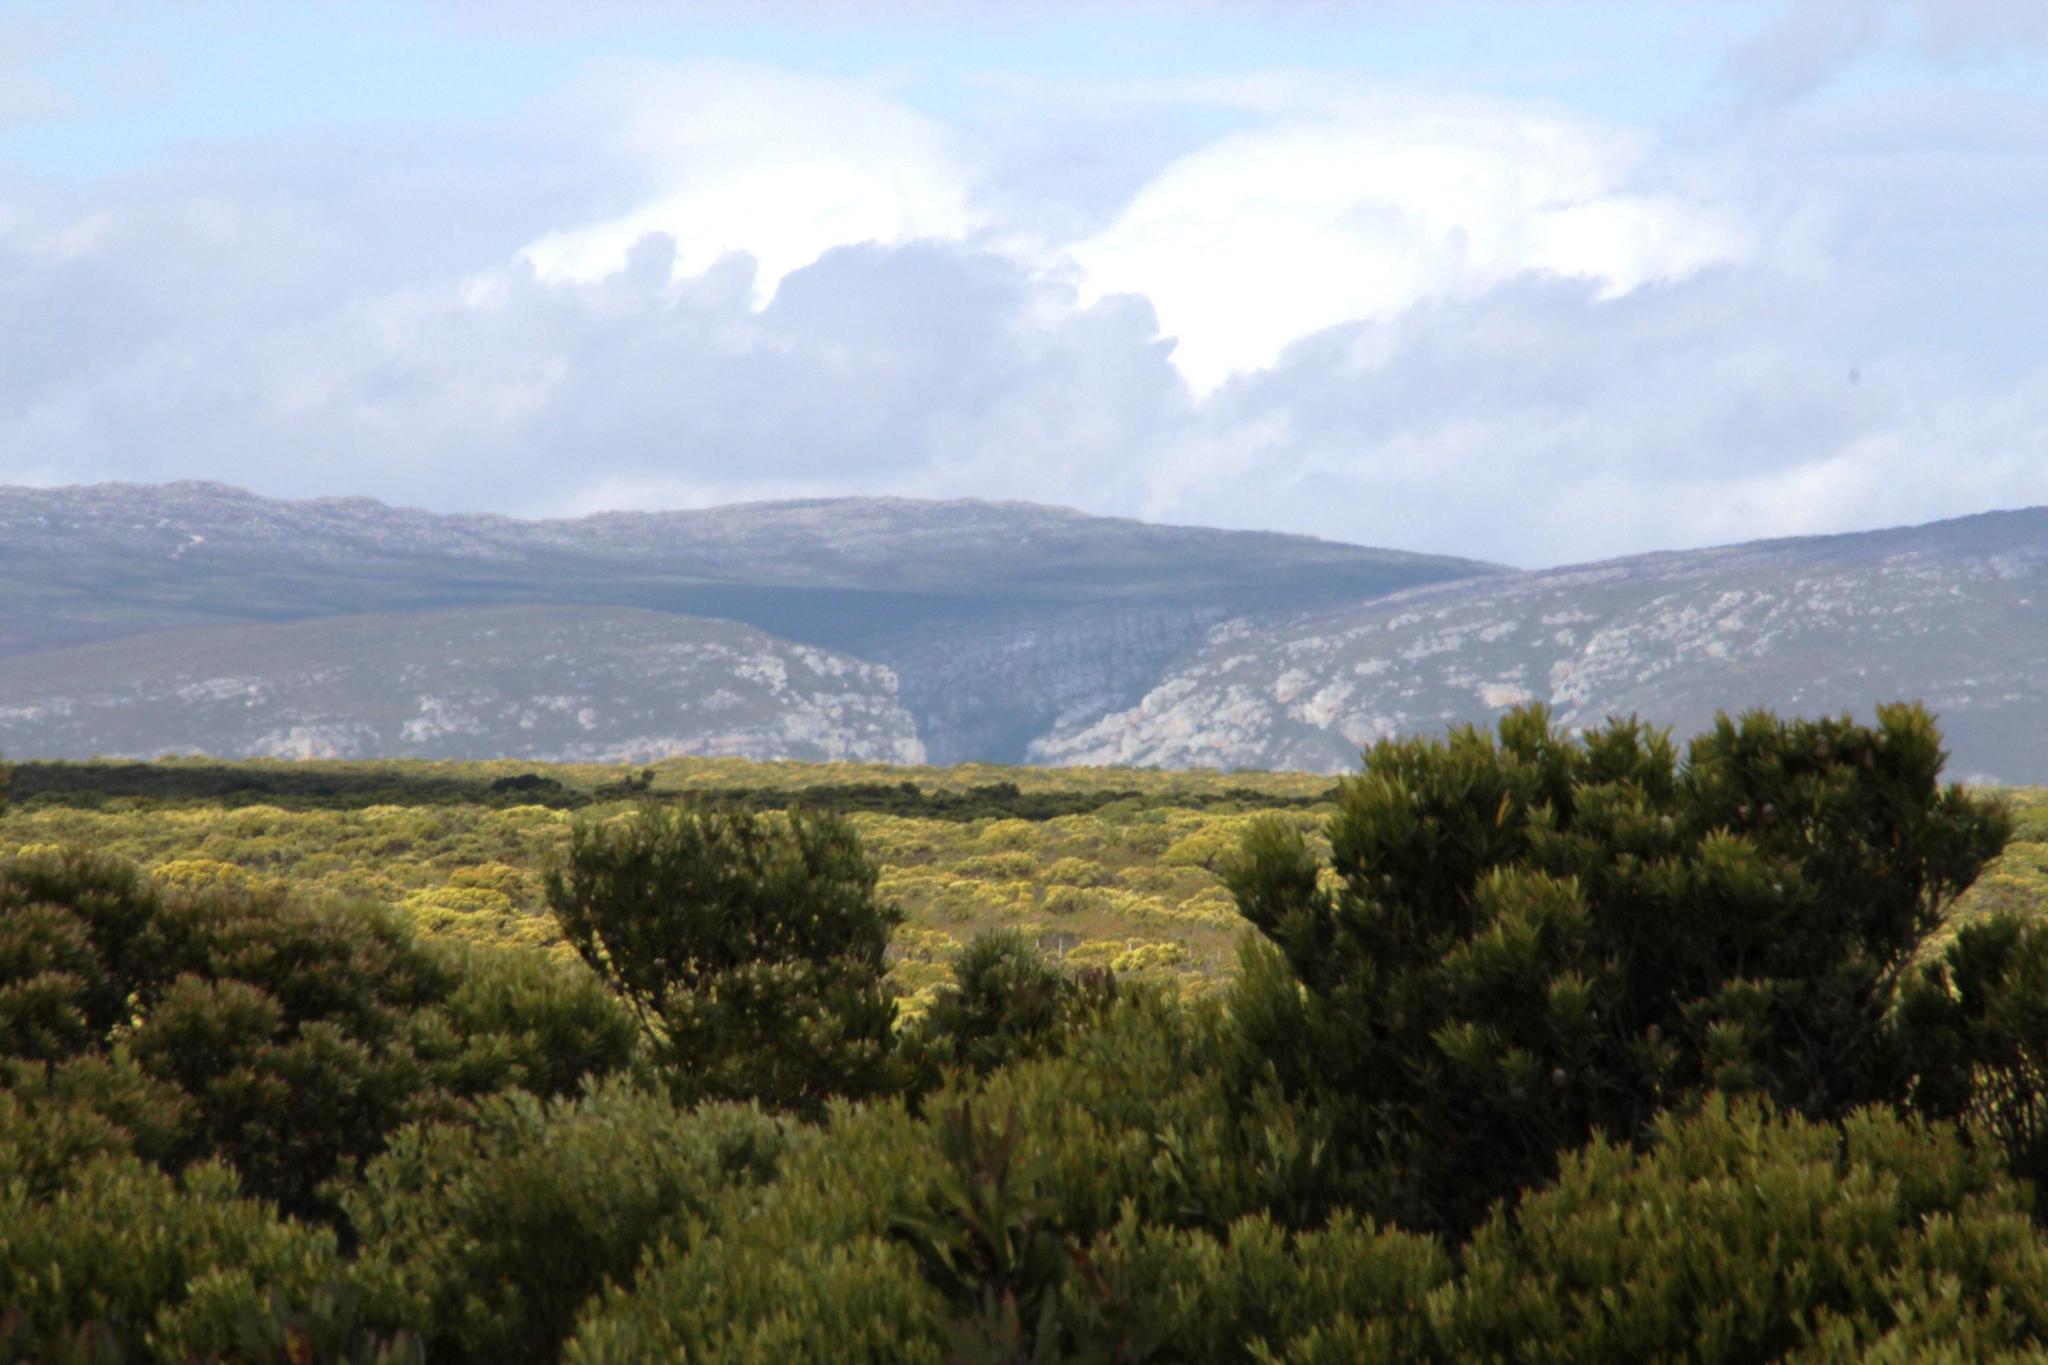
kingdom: Animalia
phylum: Chordata
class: Aves
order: Accipitriformes
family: Accipitridae
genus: Gyps
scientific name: Gyps coprotheres
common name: Cape vulture
